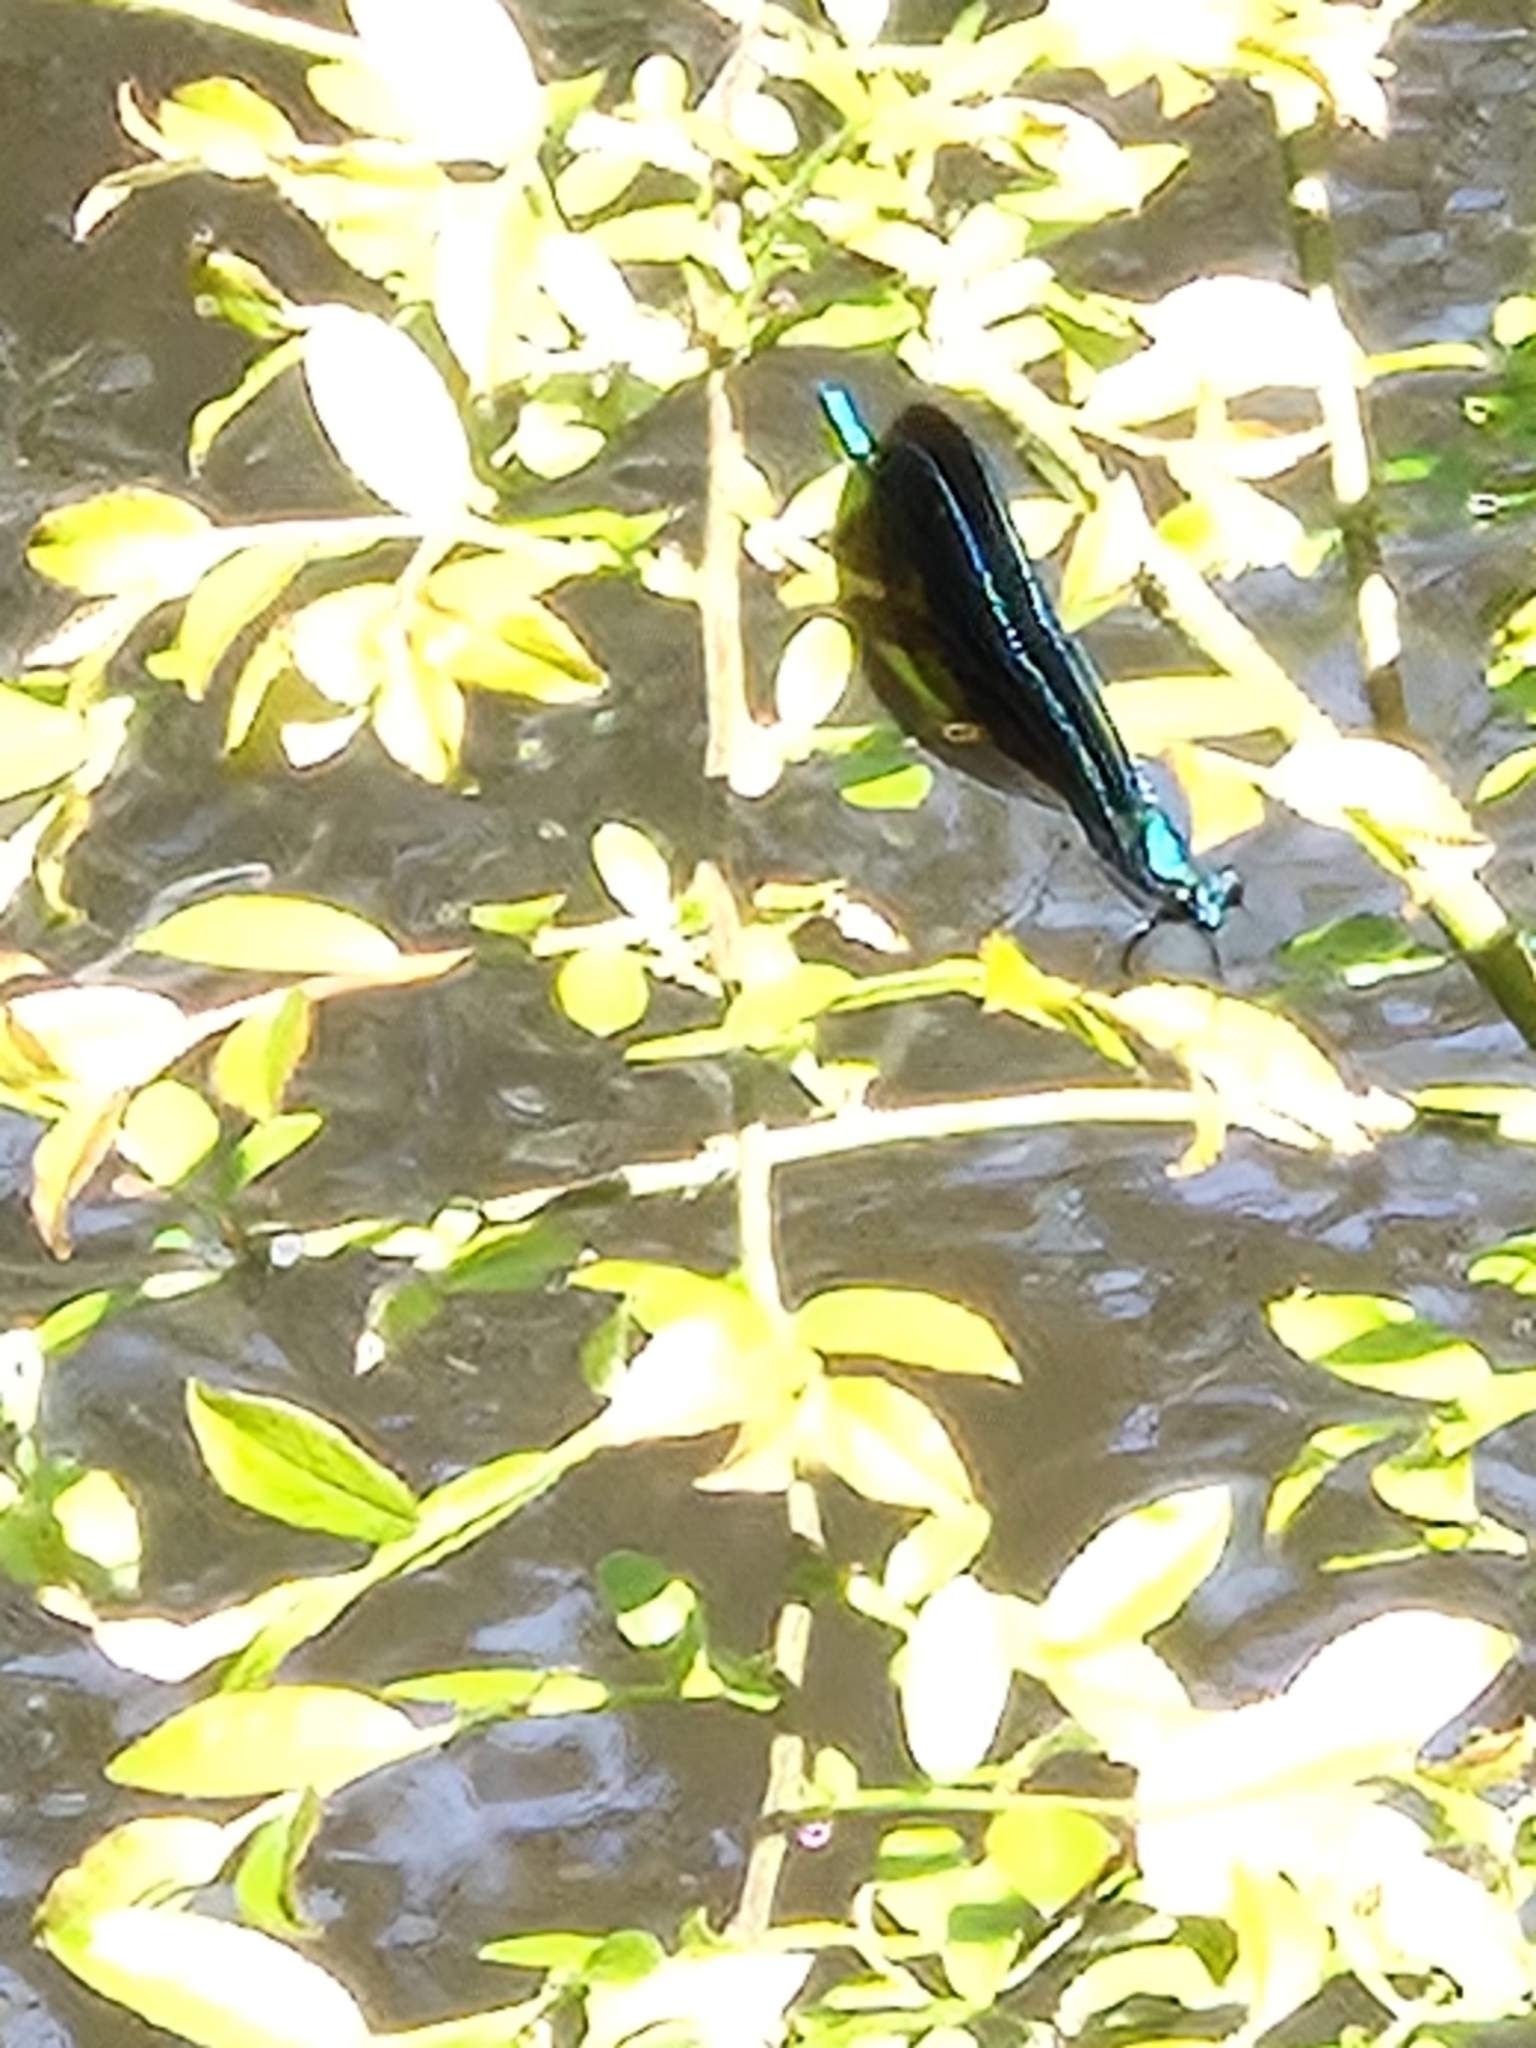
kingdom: Animalia
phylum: Arthropoda
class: Insecta
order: Odonata
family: Calopterygidae
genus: Calopteryx
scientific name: Calopteryx maculata
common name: Ebony jewelwing
